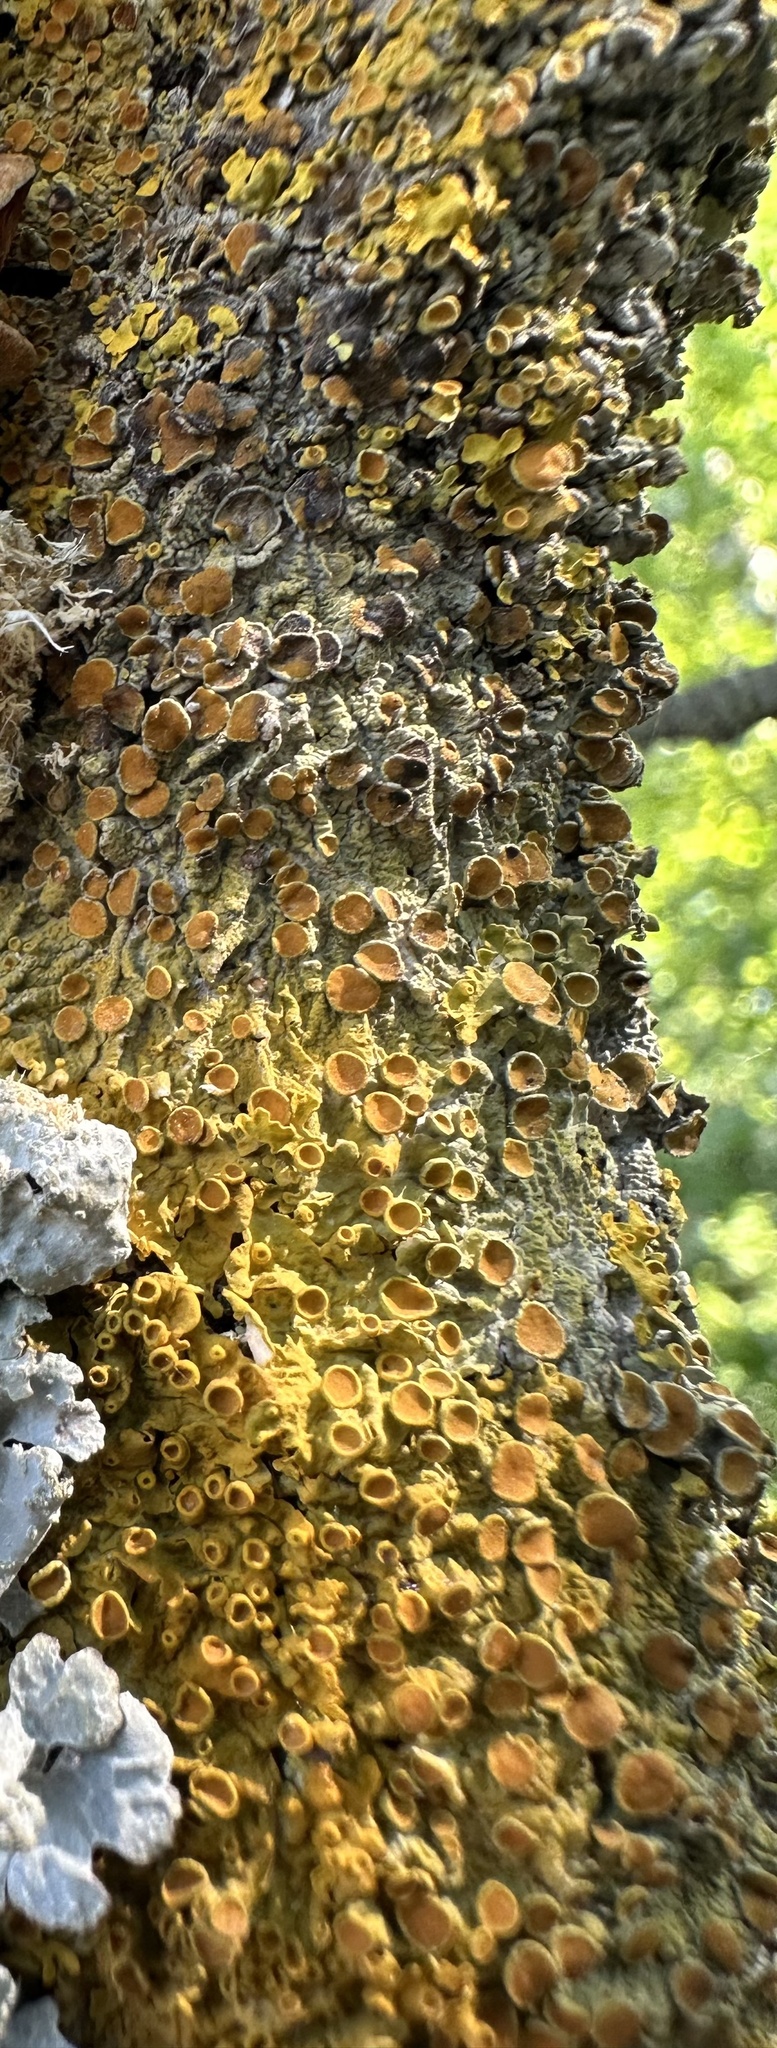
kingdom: Fungi
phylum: Ascomycota
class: Lecanoromycetes
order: Teloschistales
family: Teloschistaceae
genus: Xanthoria
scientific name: Xanthoria parietina
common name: Common orange lichen
